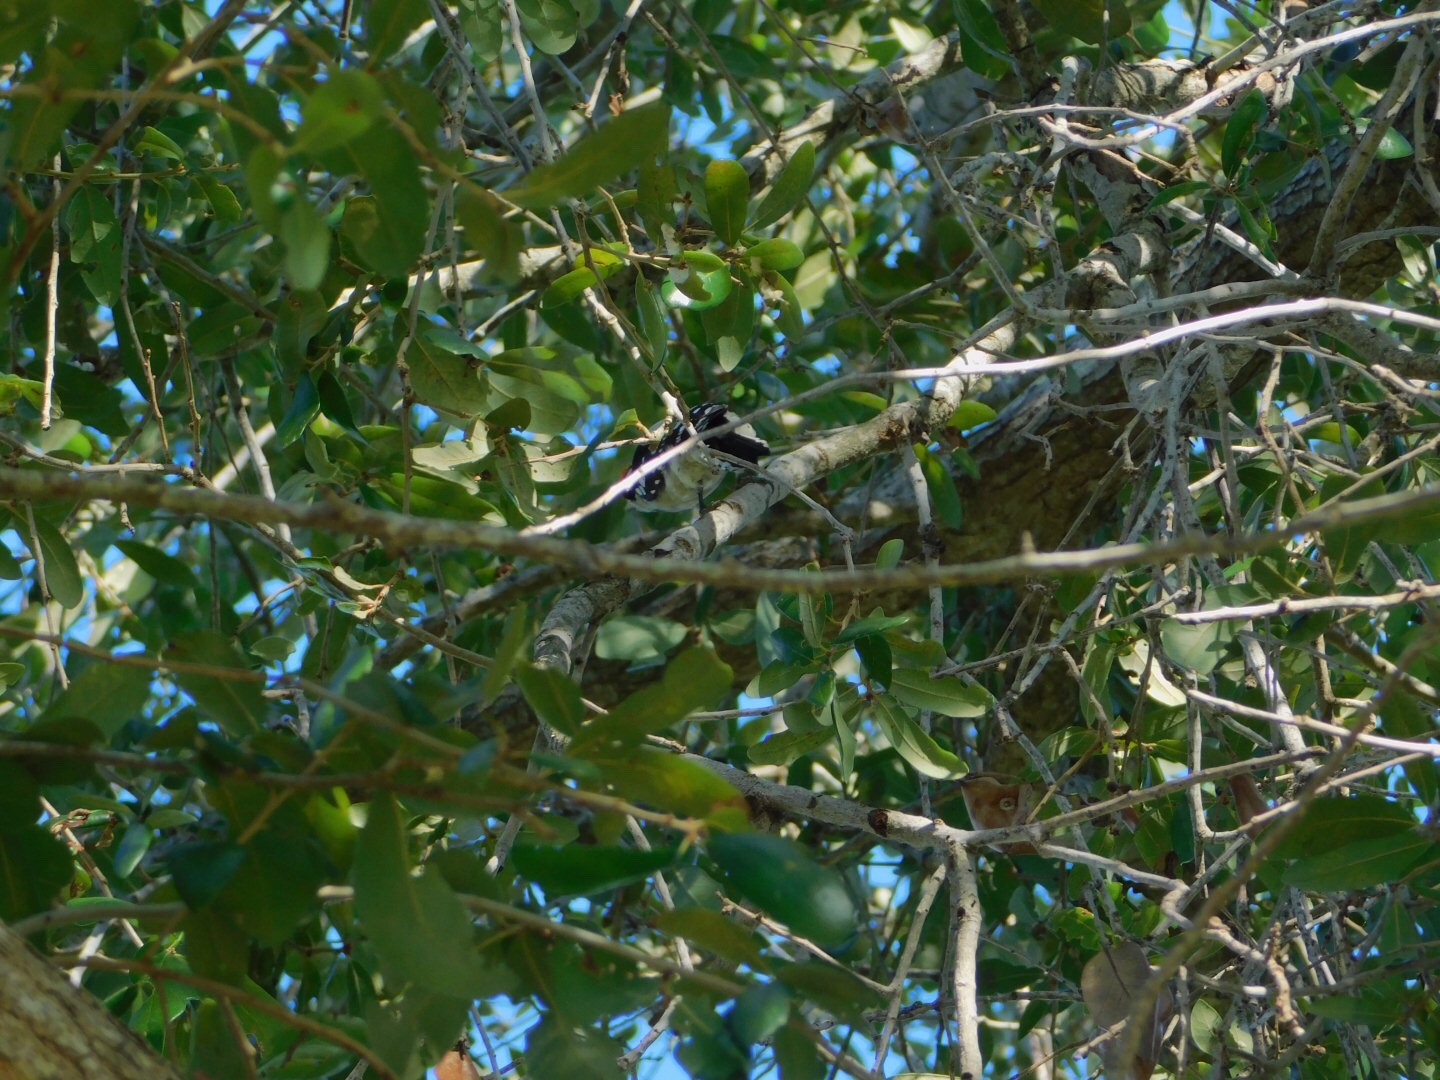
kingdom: Animalia
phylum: Chordata
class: Aves
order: Piciformes
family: Picidae
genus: Dryobates
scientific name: Dryobates pubescens
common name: Downy woodpecker
